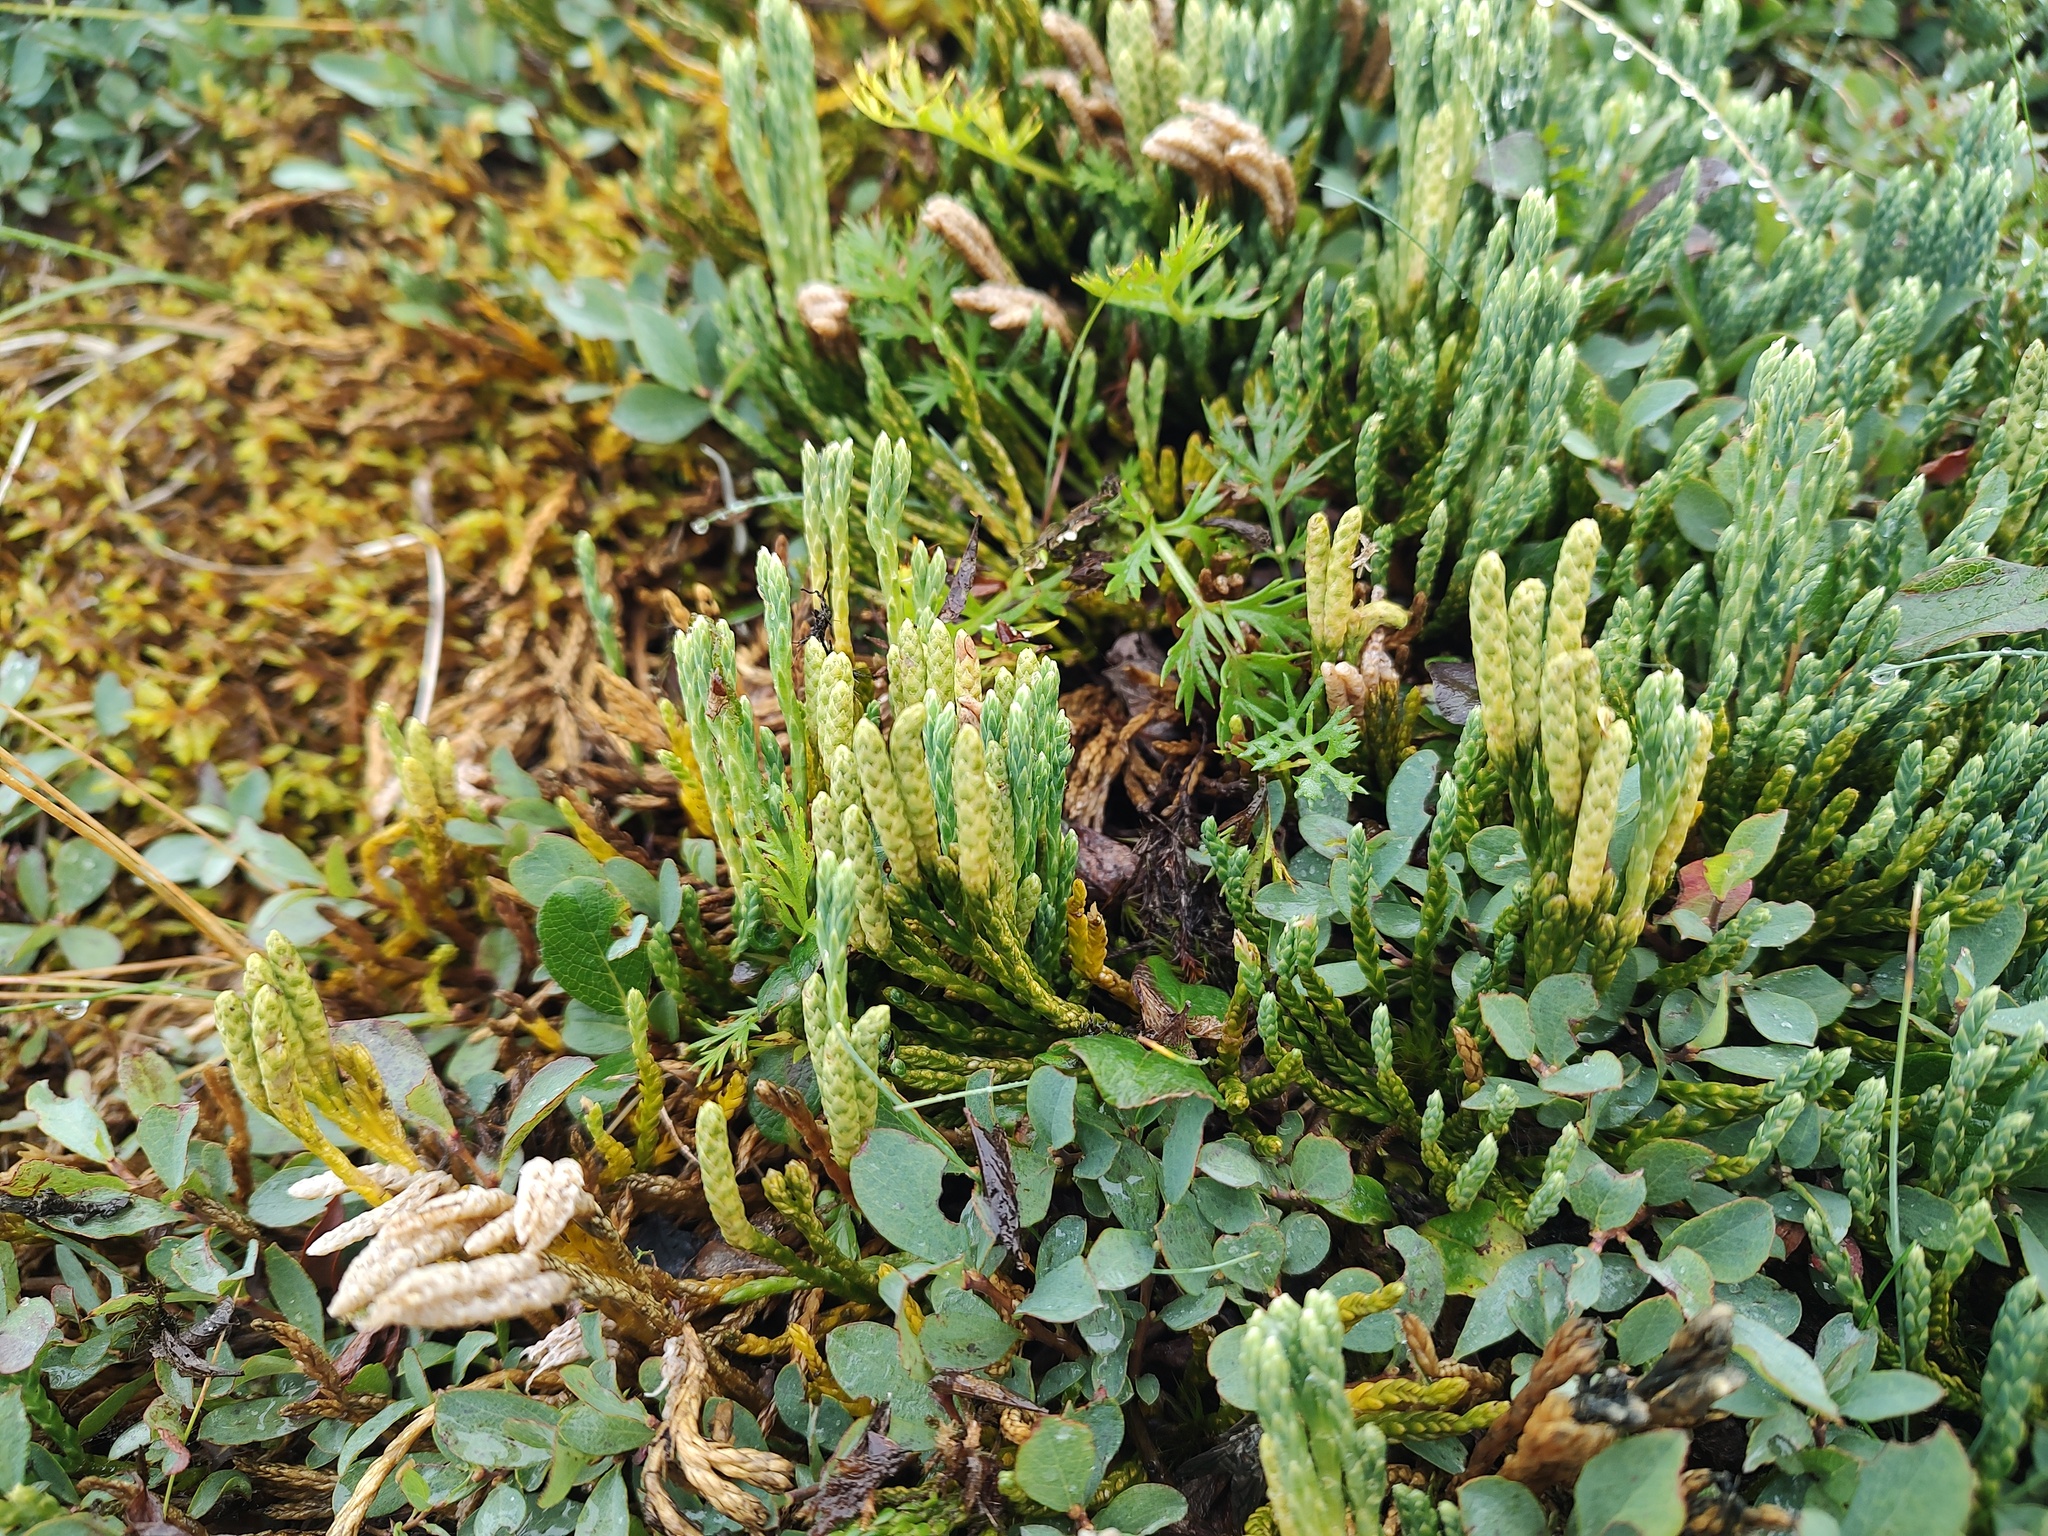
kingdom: Plantae
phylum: Tracheophyta
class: Lycopodiopsida
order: Lycopodiales
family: Lycopodiaceae
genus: Diphasiastrum
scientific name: Diphasiastrum alpinum
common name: Alpine clubmoss
